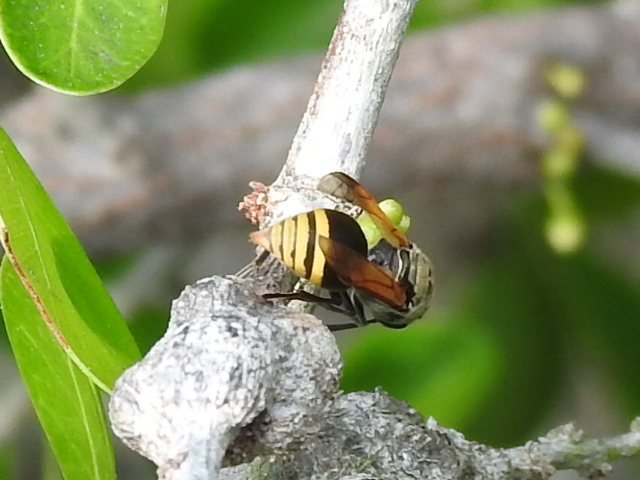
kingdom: Animalia
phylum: Arthropoda
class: Insecta
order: Hymenoptera
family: Vespidae
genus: Brachygastra
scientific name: Brachygastra mellifica
